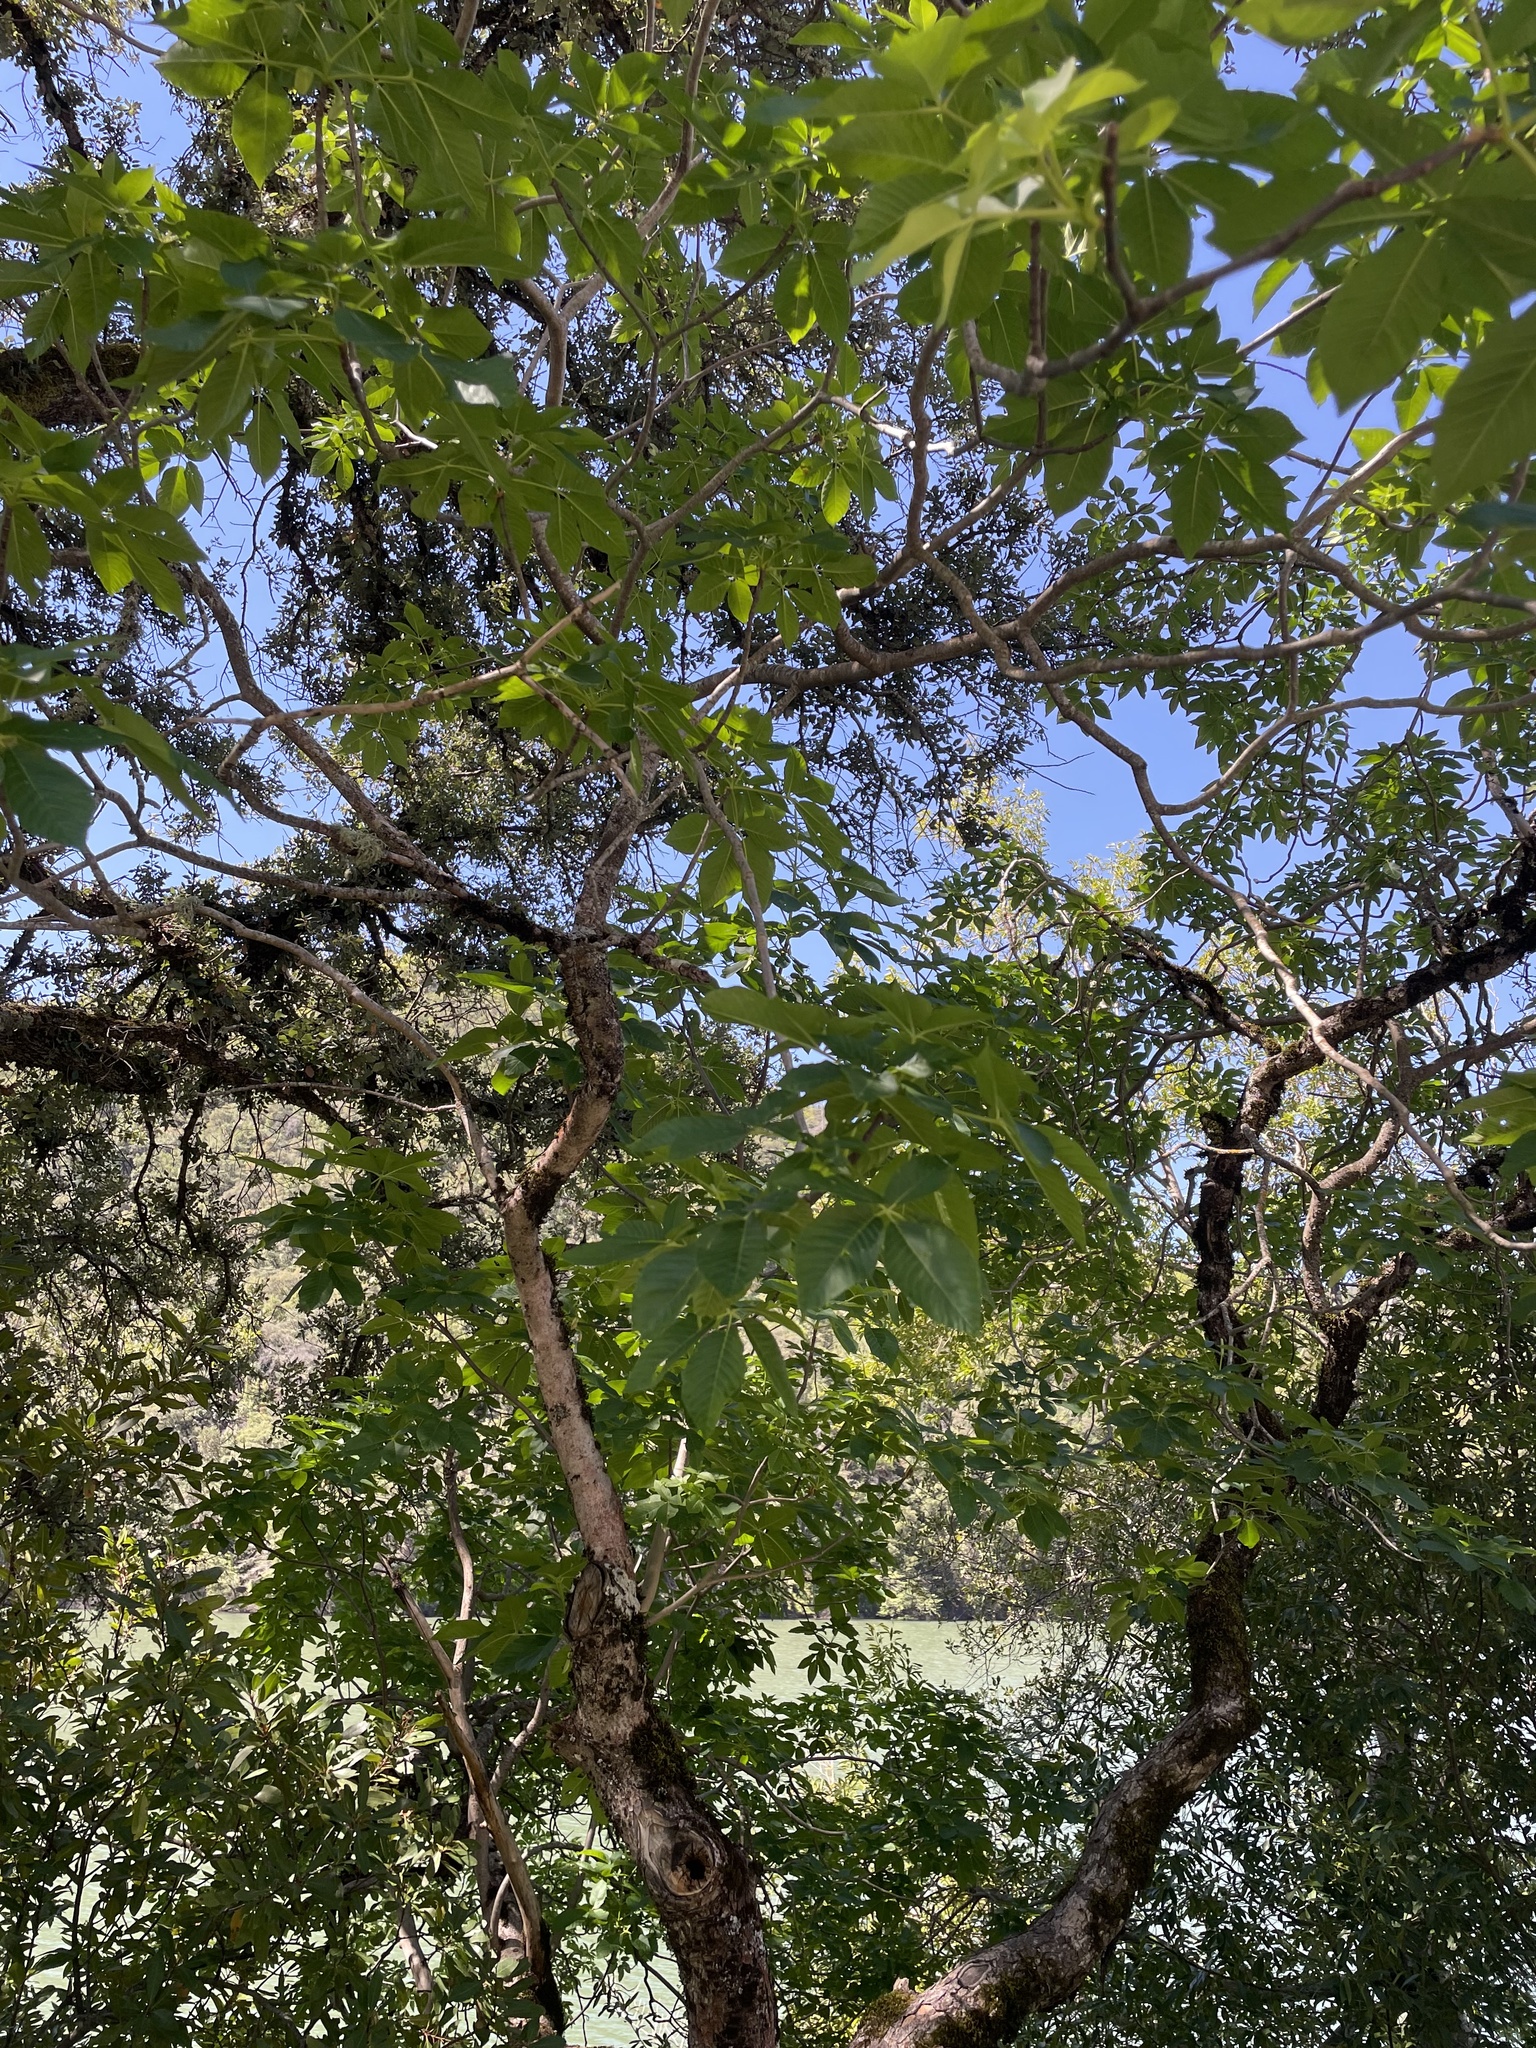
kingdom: Plantae
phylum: Tracheophyta
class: Magnoliopsida
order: Sapindales
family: Sapindaceae
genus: Aesculus
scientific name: Aesculus californica
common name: California buckeye
